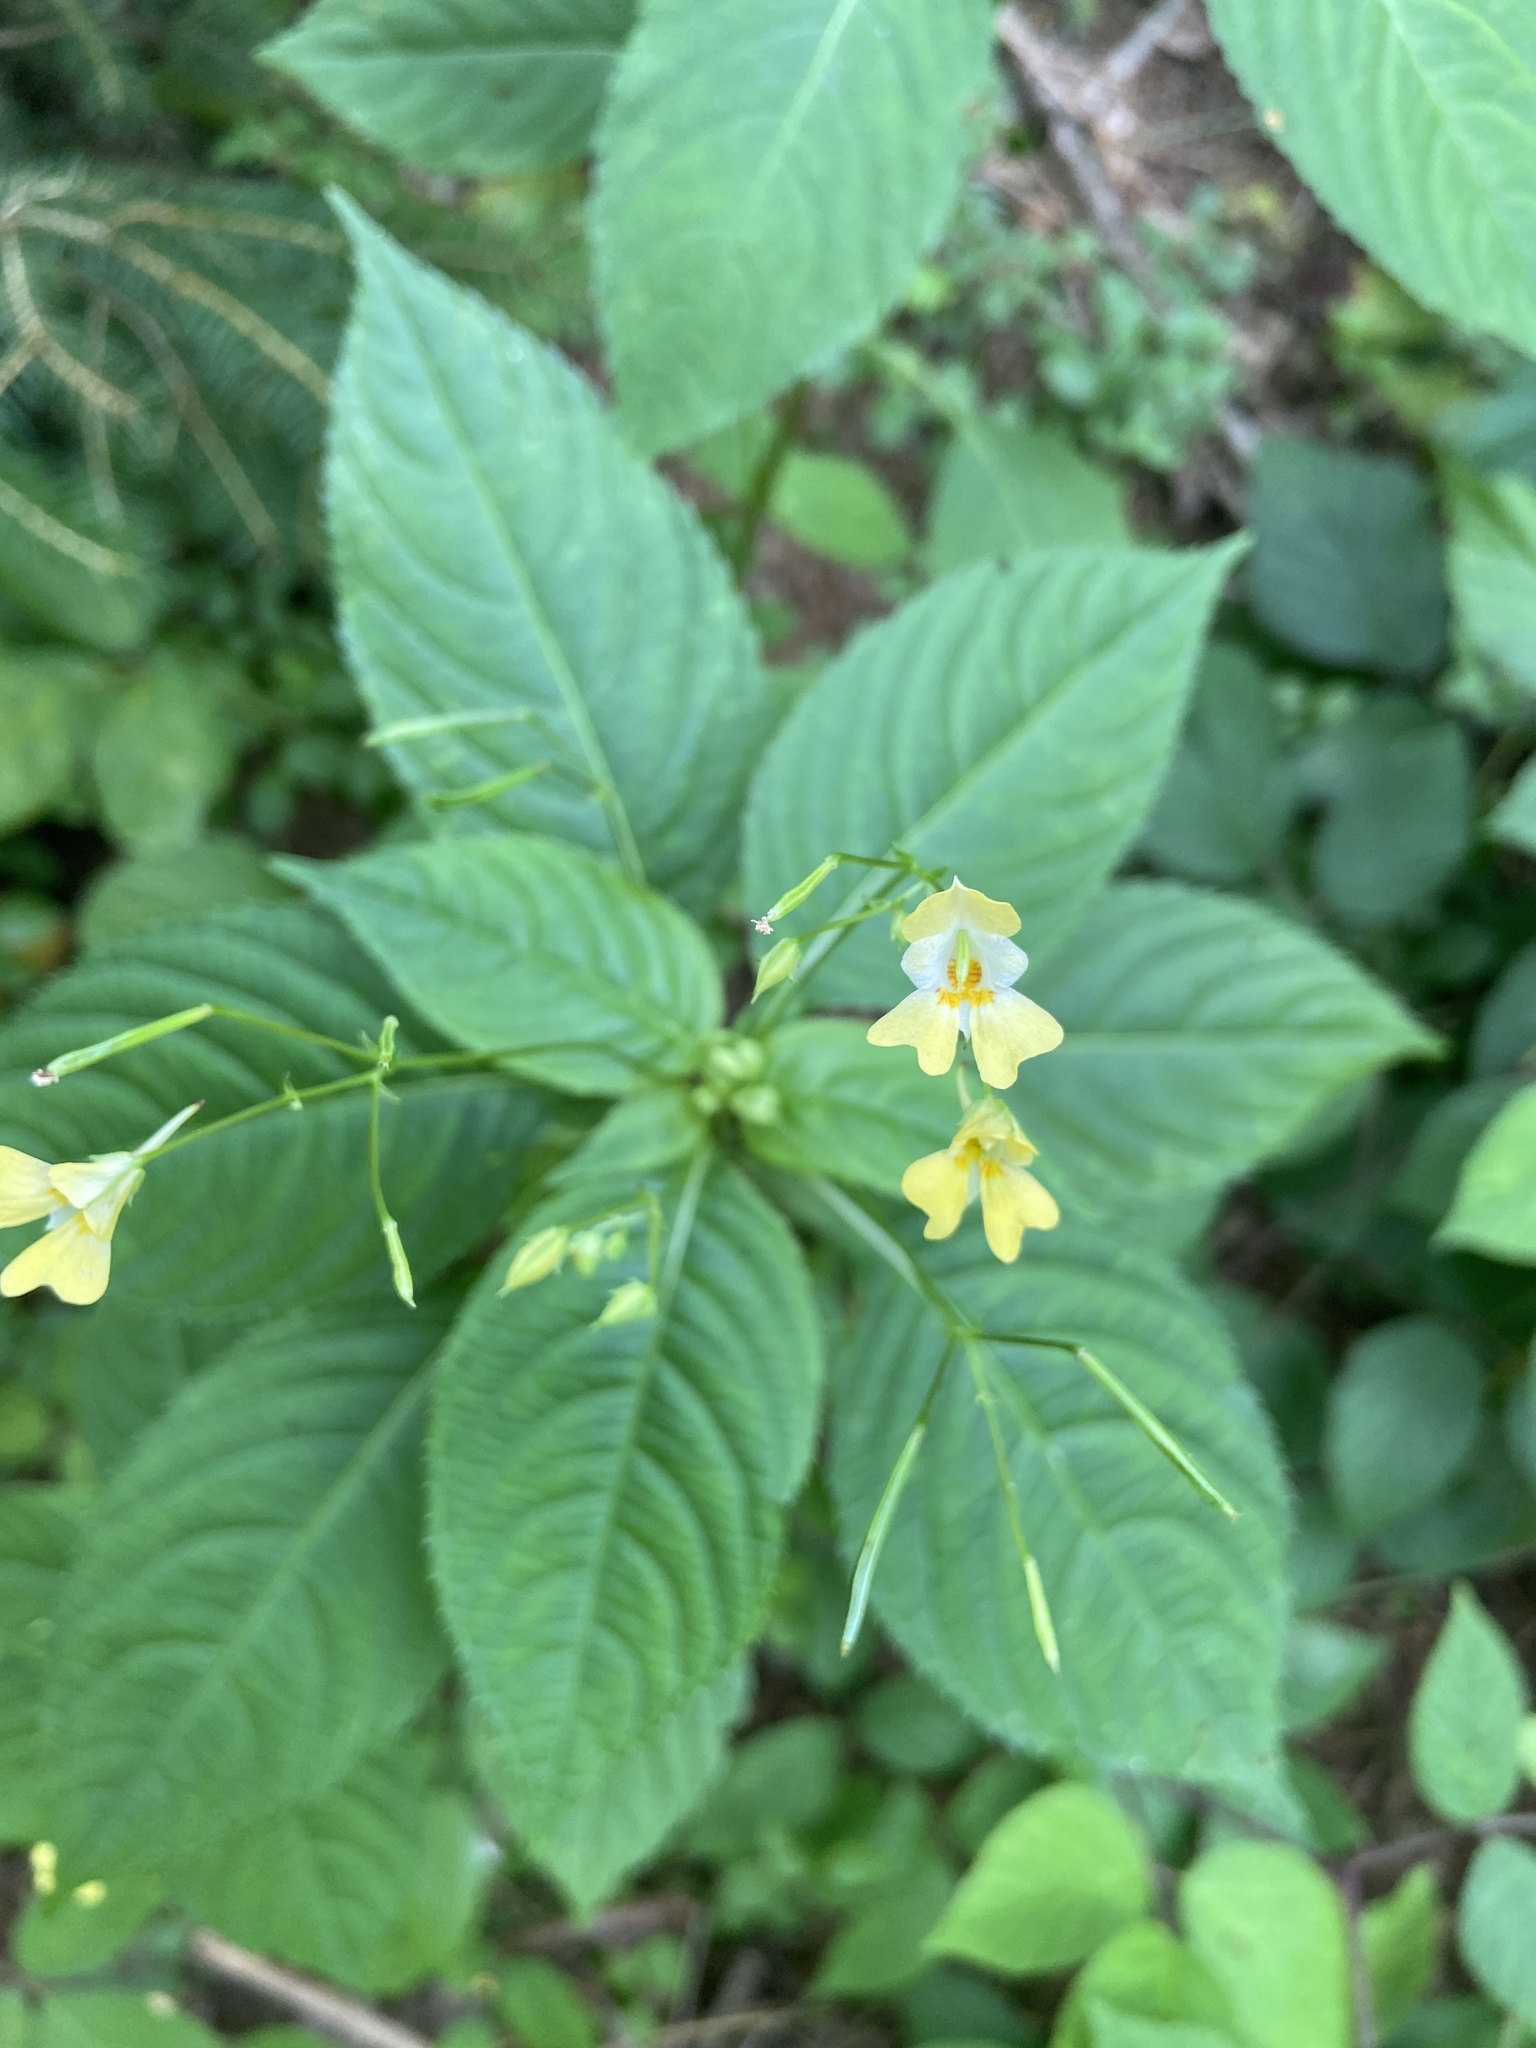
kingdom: Plantae
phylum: Tracheophyta
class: Magnoliopsida
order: Ericales
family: Balsaminaceae
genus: Impatiens
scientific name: Impatiens parviflora
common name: Small balsam
